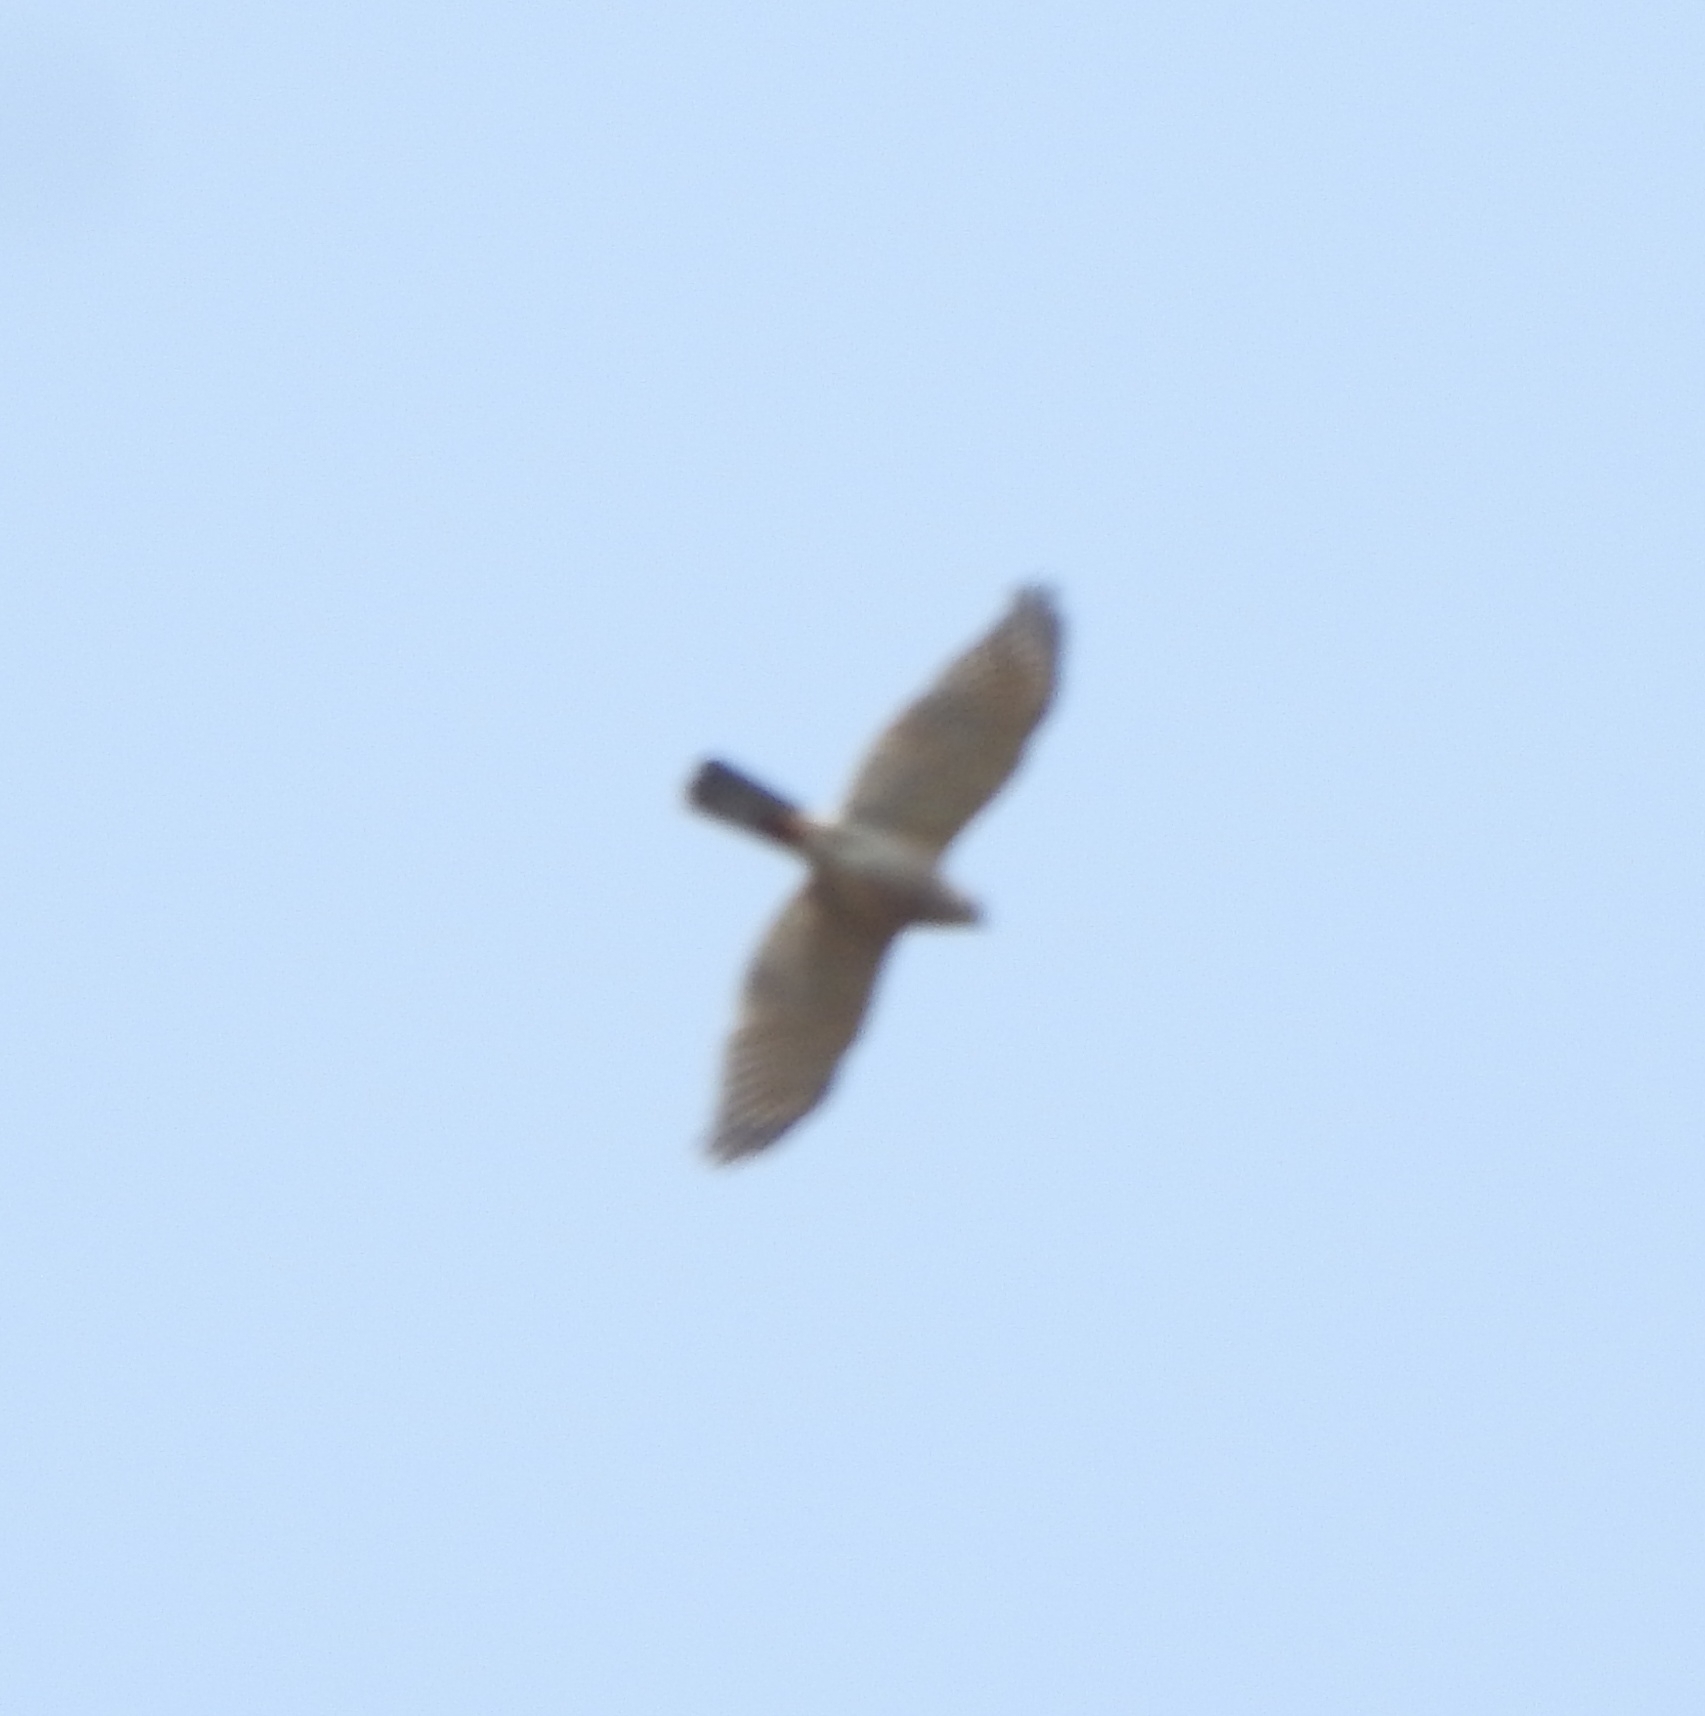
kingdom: Animalia
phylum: Chordata
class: Aves
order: Accipitriformes
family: Accipitridae
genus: Accipiter
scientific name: Accipiter badius
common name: Shikra
